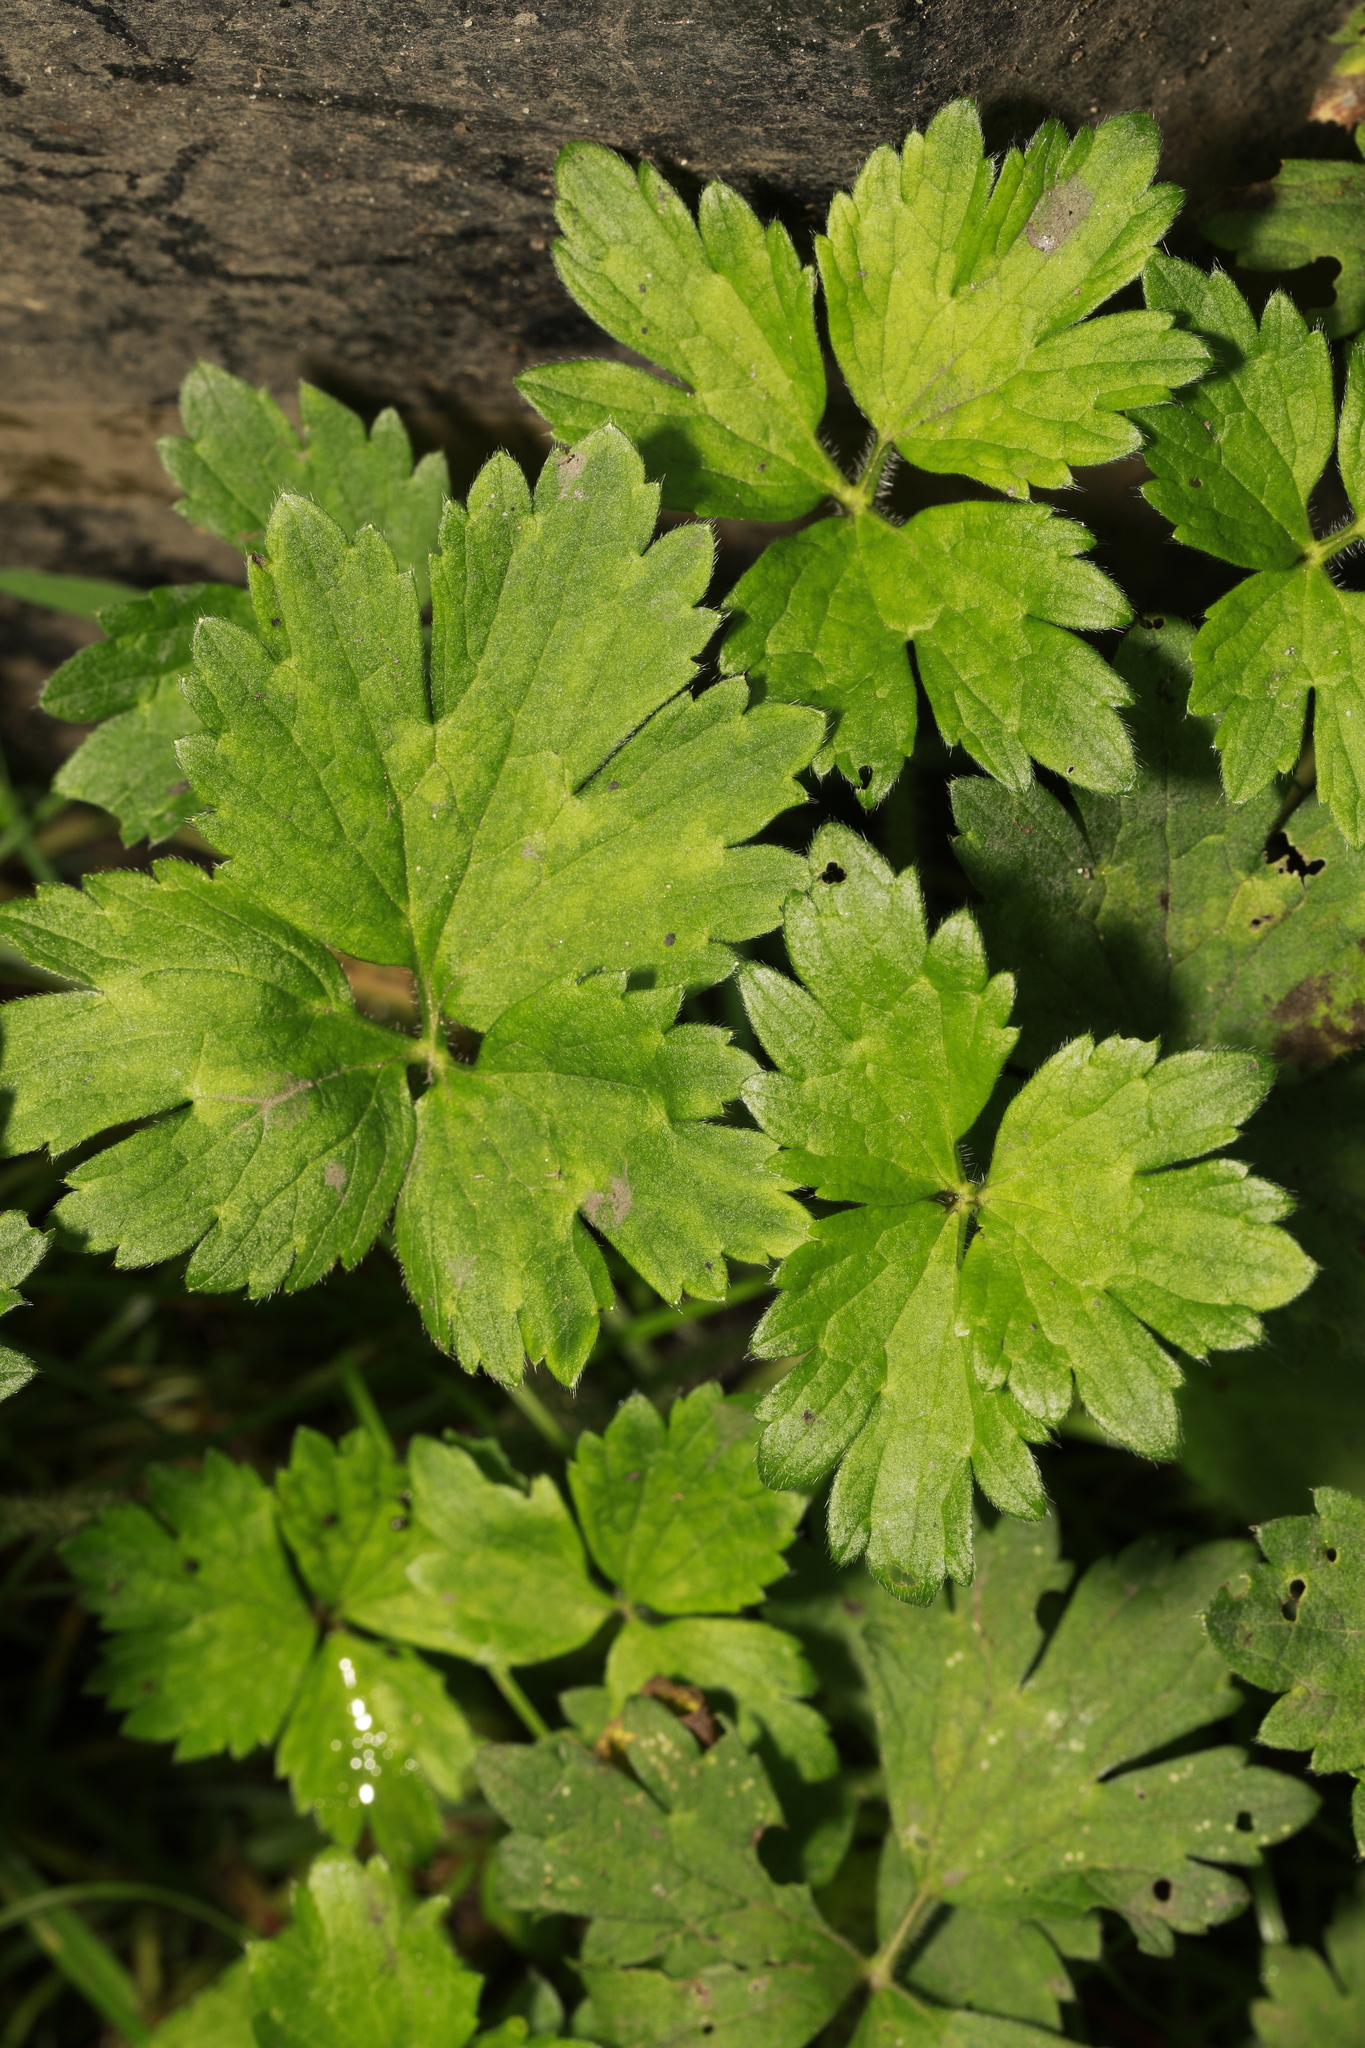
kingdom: Plantae
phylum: Tracheophyta
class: Magnoliopsida
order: Ranunculales
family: Ranunculaceae
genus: Ranunculus
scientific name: Ranunculus repens
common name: Creeping buttercup
